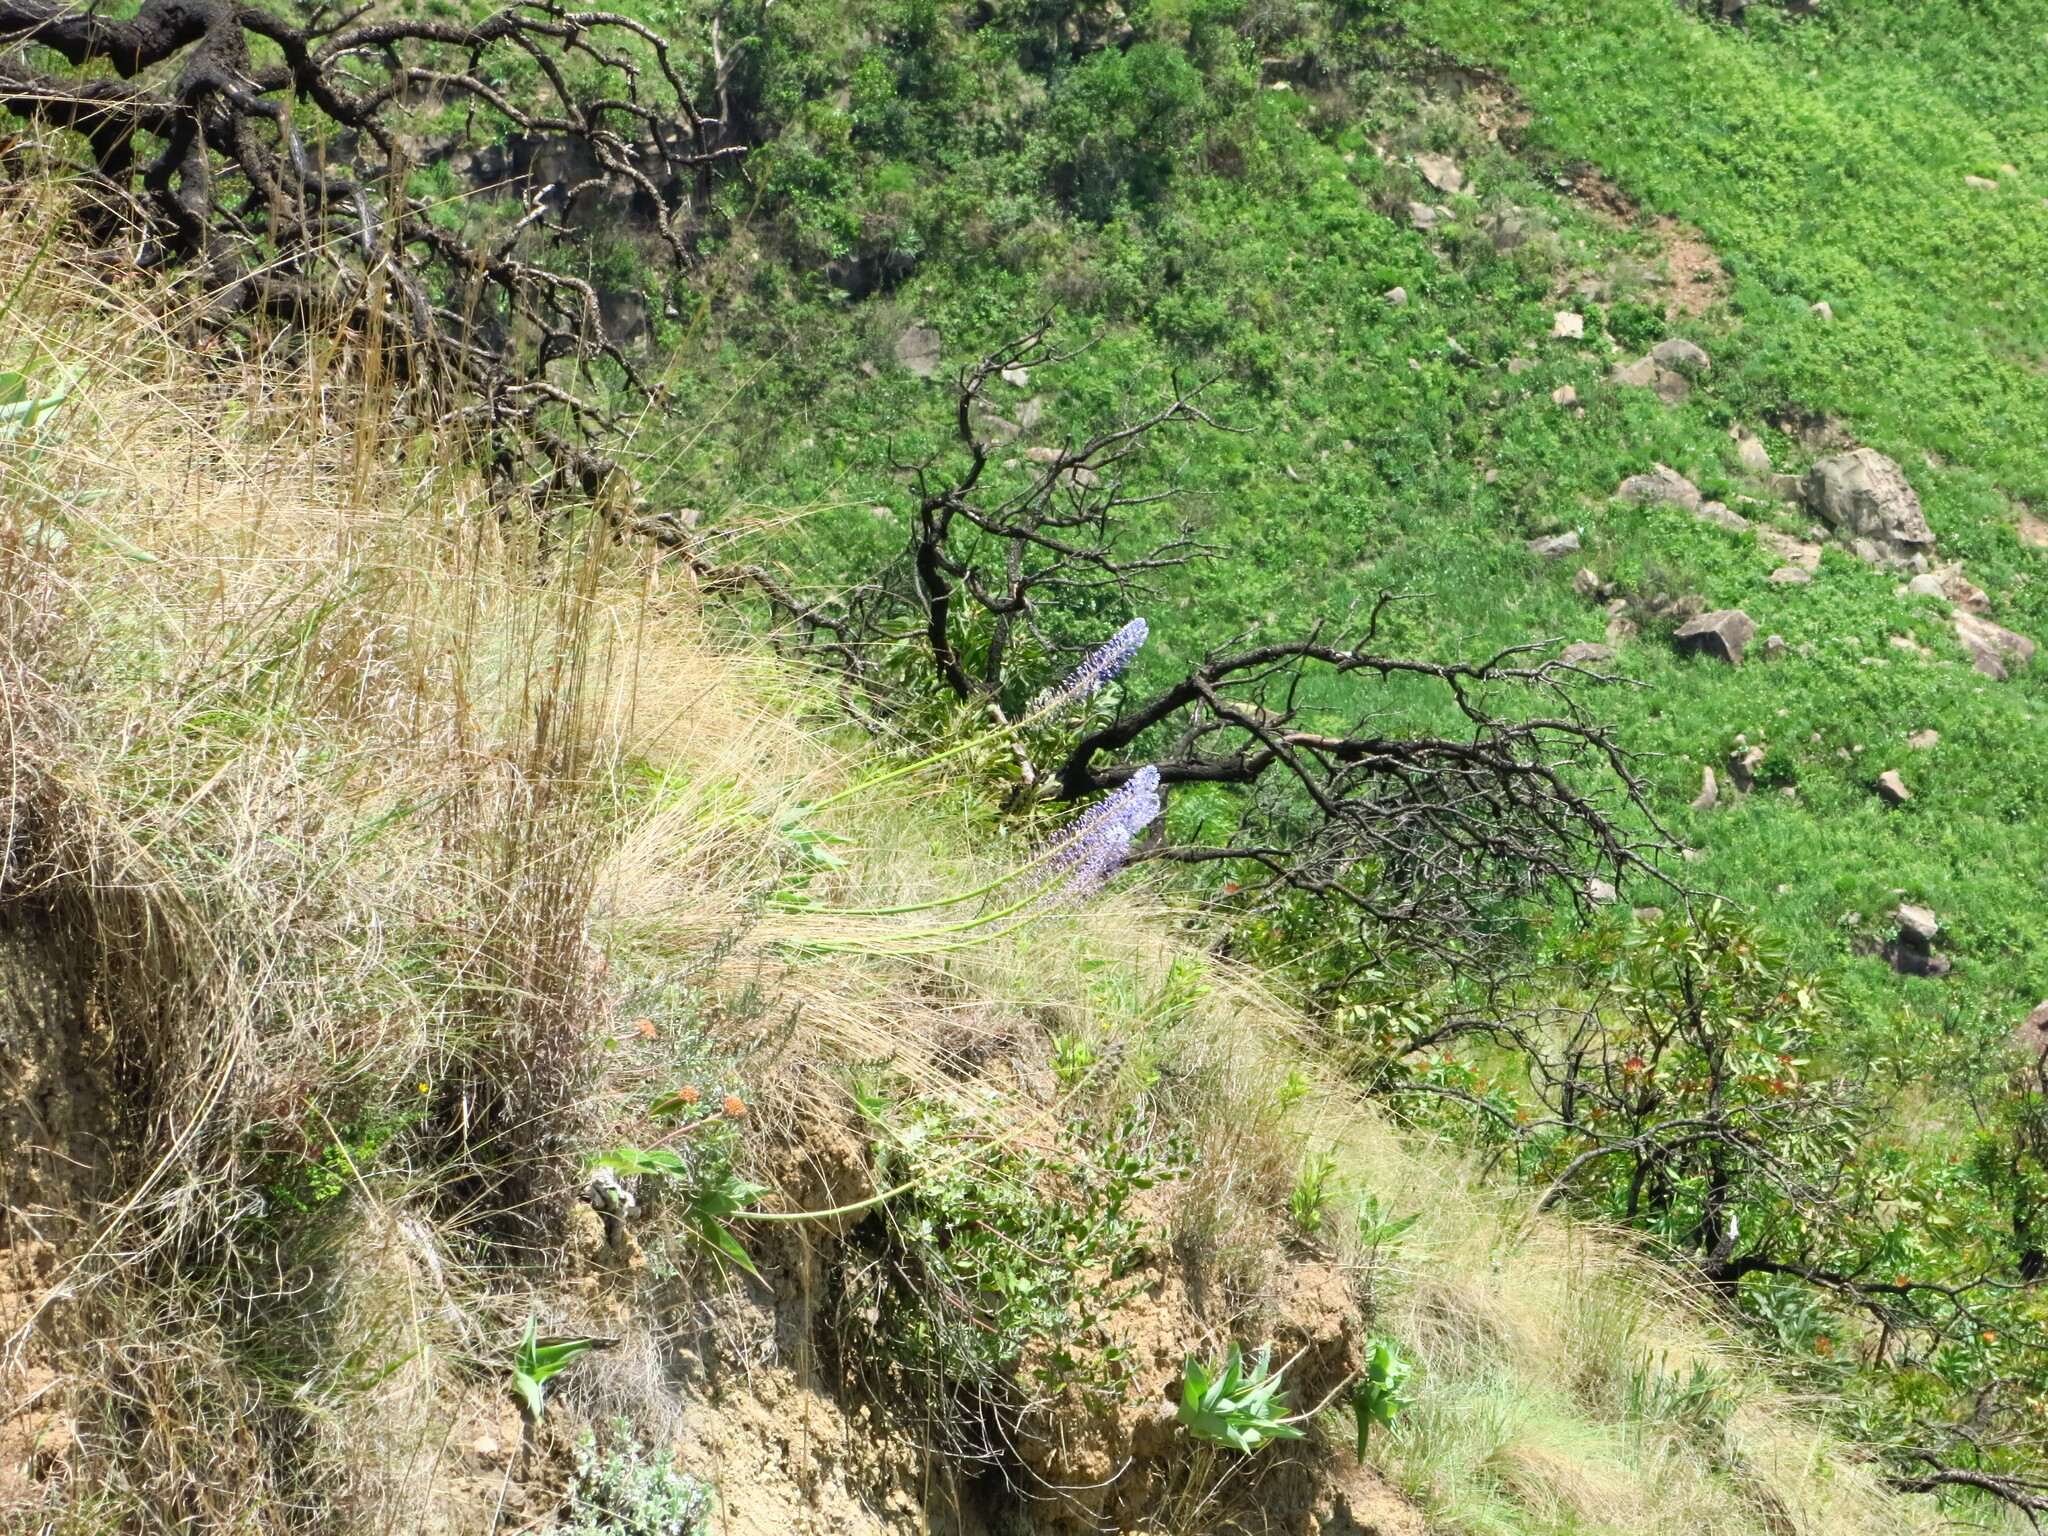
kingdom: Plantae
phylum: Tracheophyta
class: Liliopsida
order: Asparagales
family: Asparagaceae
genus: Merwilla
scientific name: Merwilla plumbea
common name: Blue-squill
